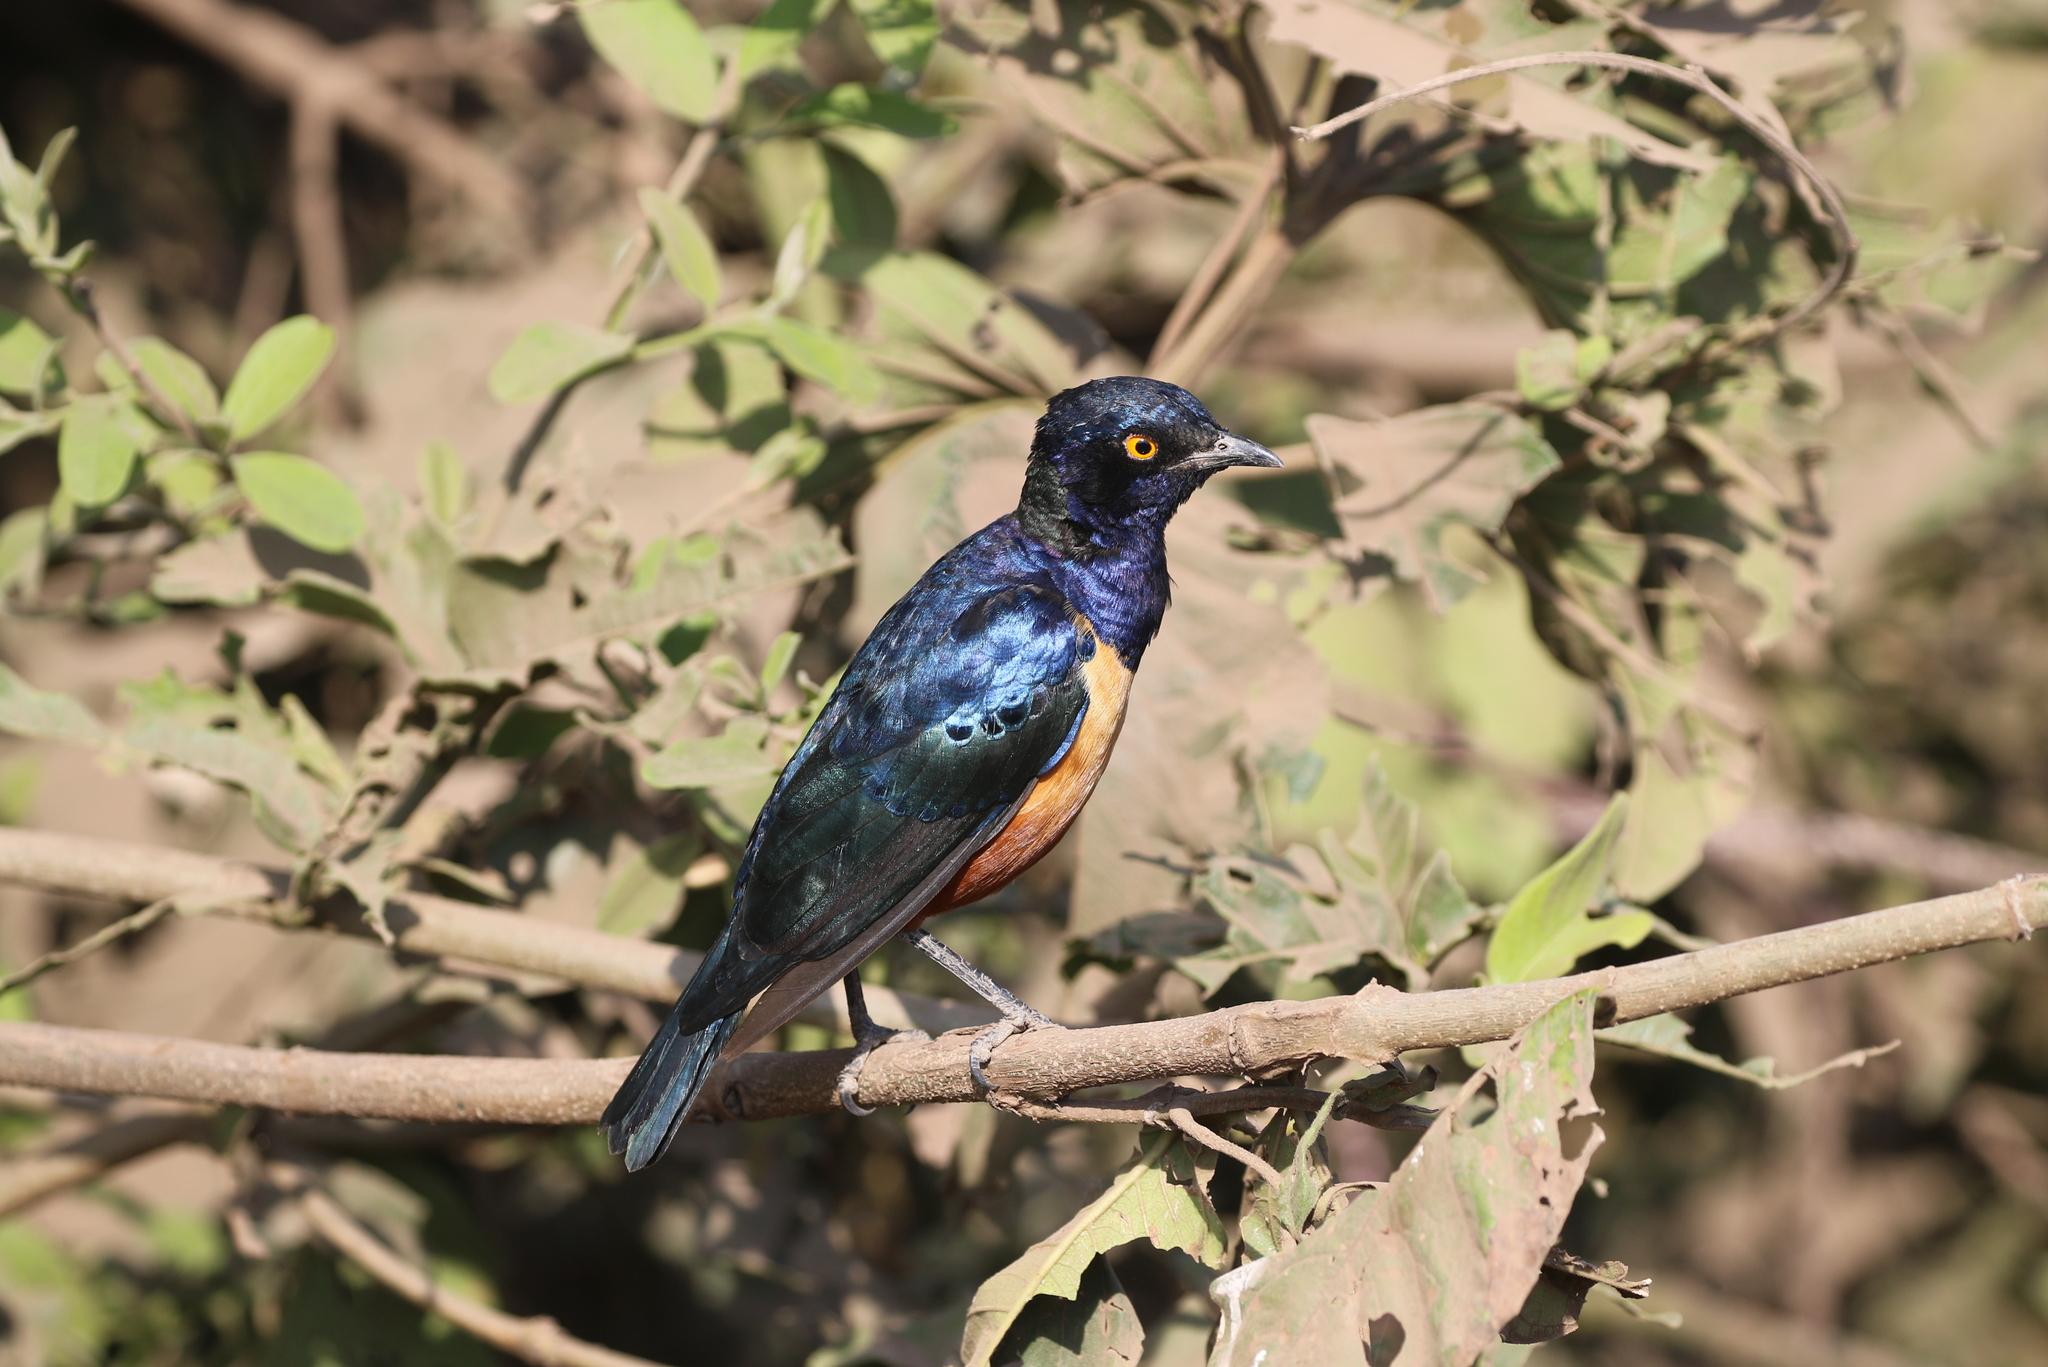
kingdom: Animalia
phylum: Chordata
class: Aves
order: Passeriformes
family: Sturnidae
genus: Lamprotornis
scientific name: Lamprotornis hildebrandti
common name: Hildebrandt's starling
